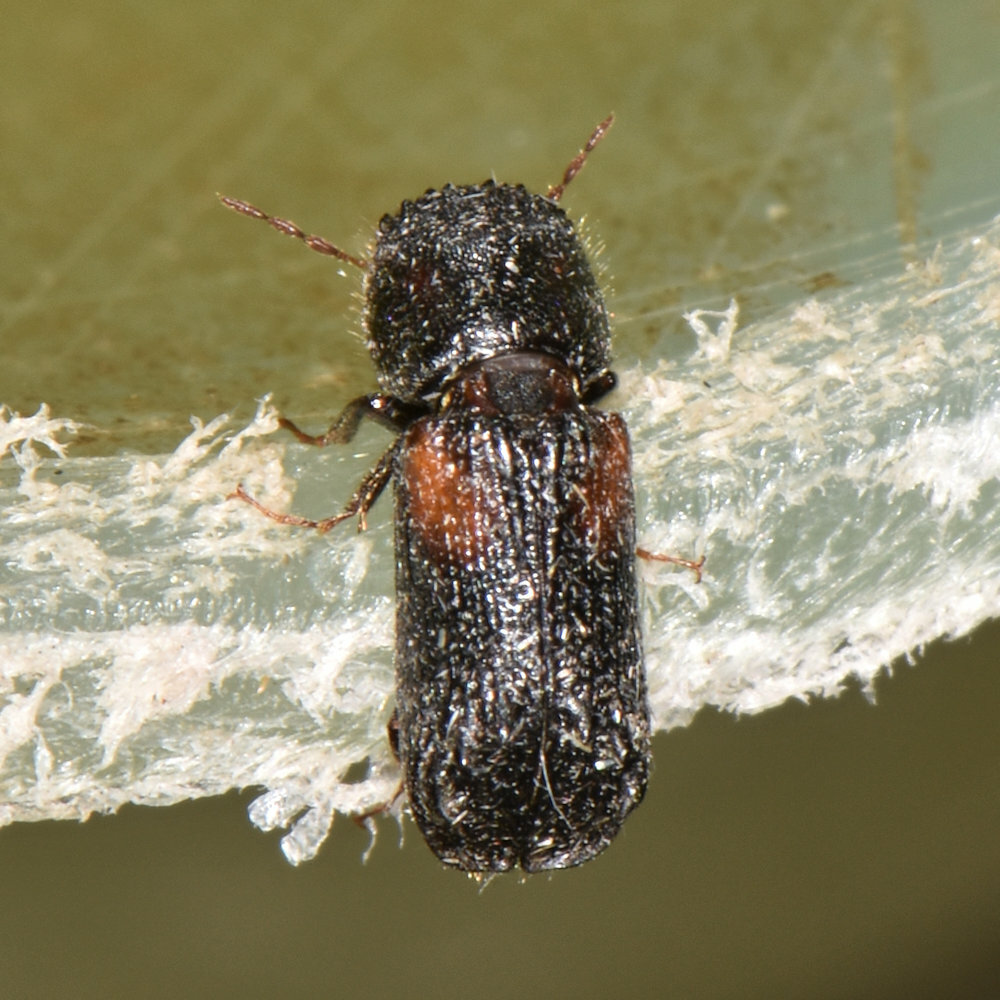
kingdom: Animalia
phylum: Arthropoda
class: Insecta
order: Coleoptera
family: Bostrichidae
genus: Xylobiops
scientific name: Xylobiops basilaris
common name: Red-shouldered bostrichid
